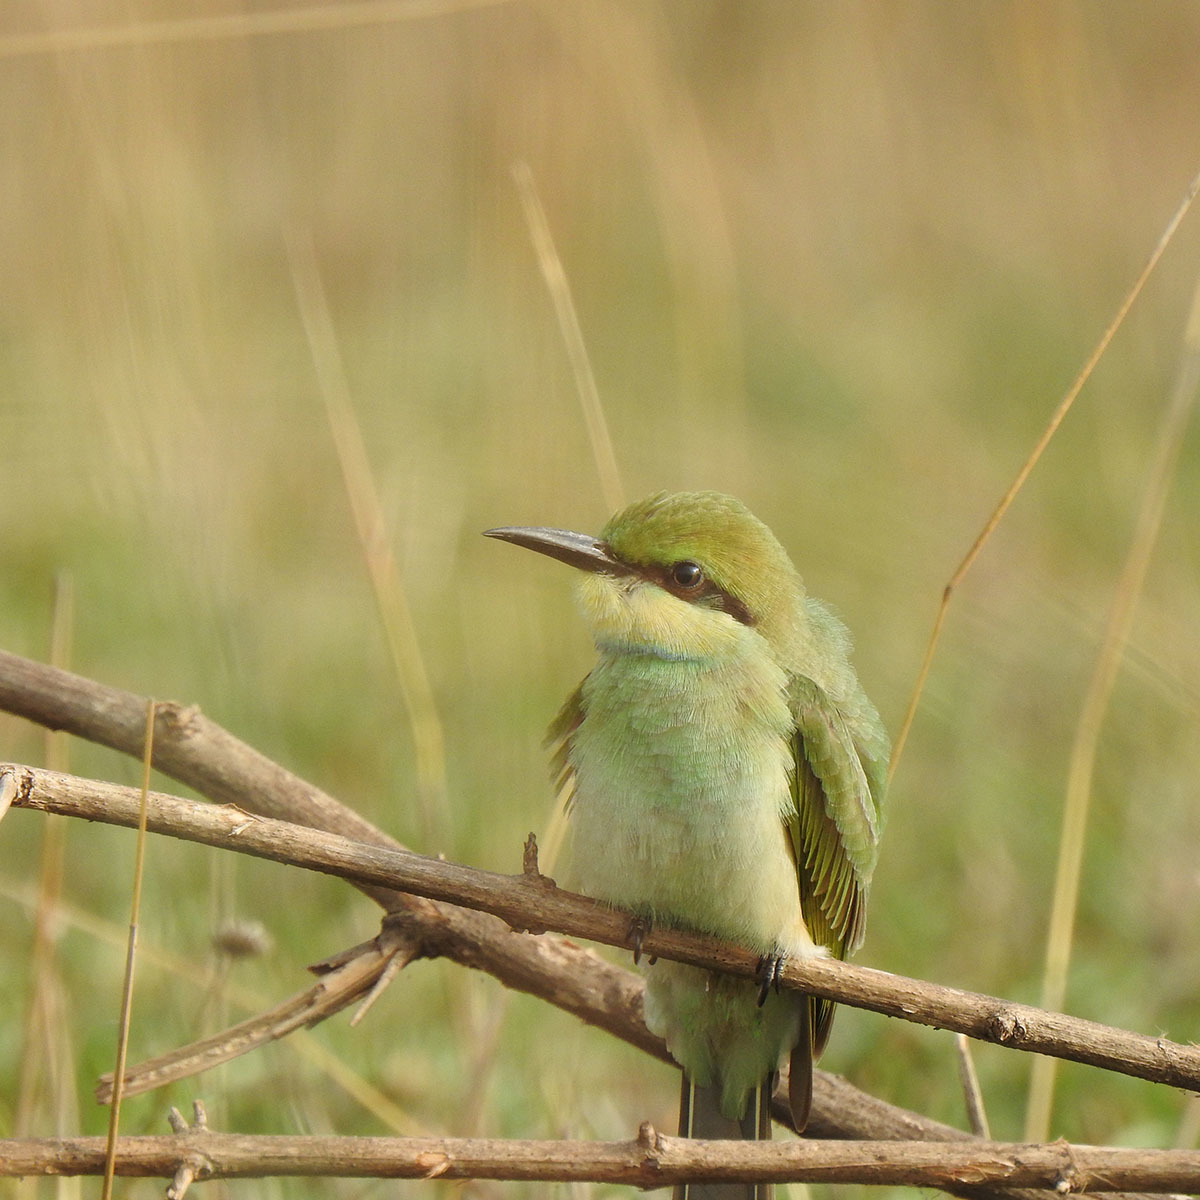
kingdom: Animalia
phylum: Chordata
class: Aves
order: Coraciiformes
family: Meropidae
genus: Merops
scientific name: Merops orientalis
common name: Green bee-eater
